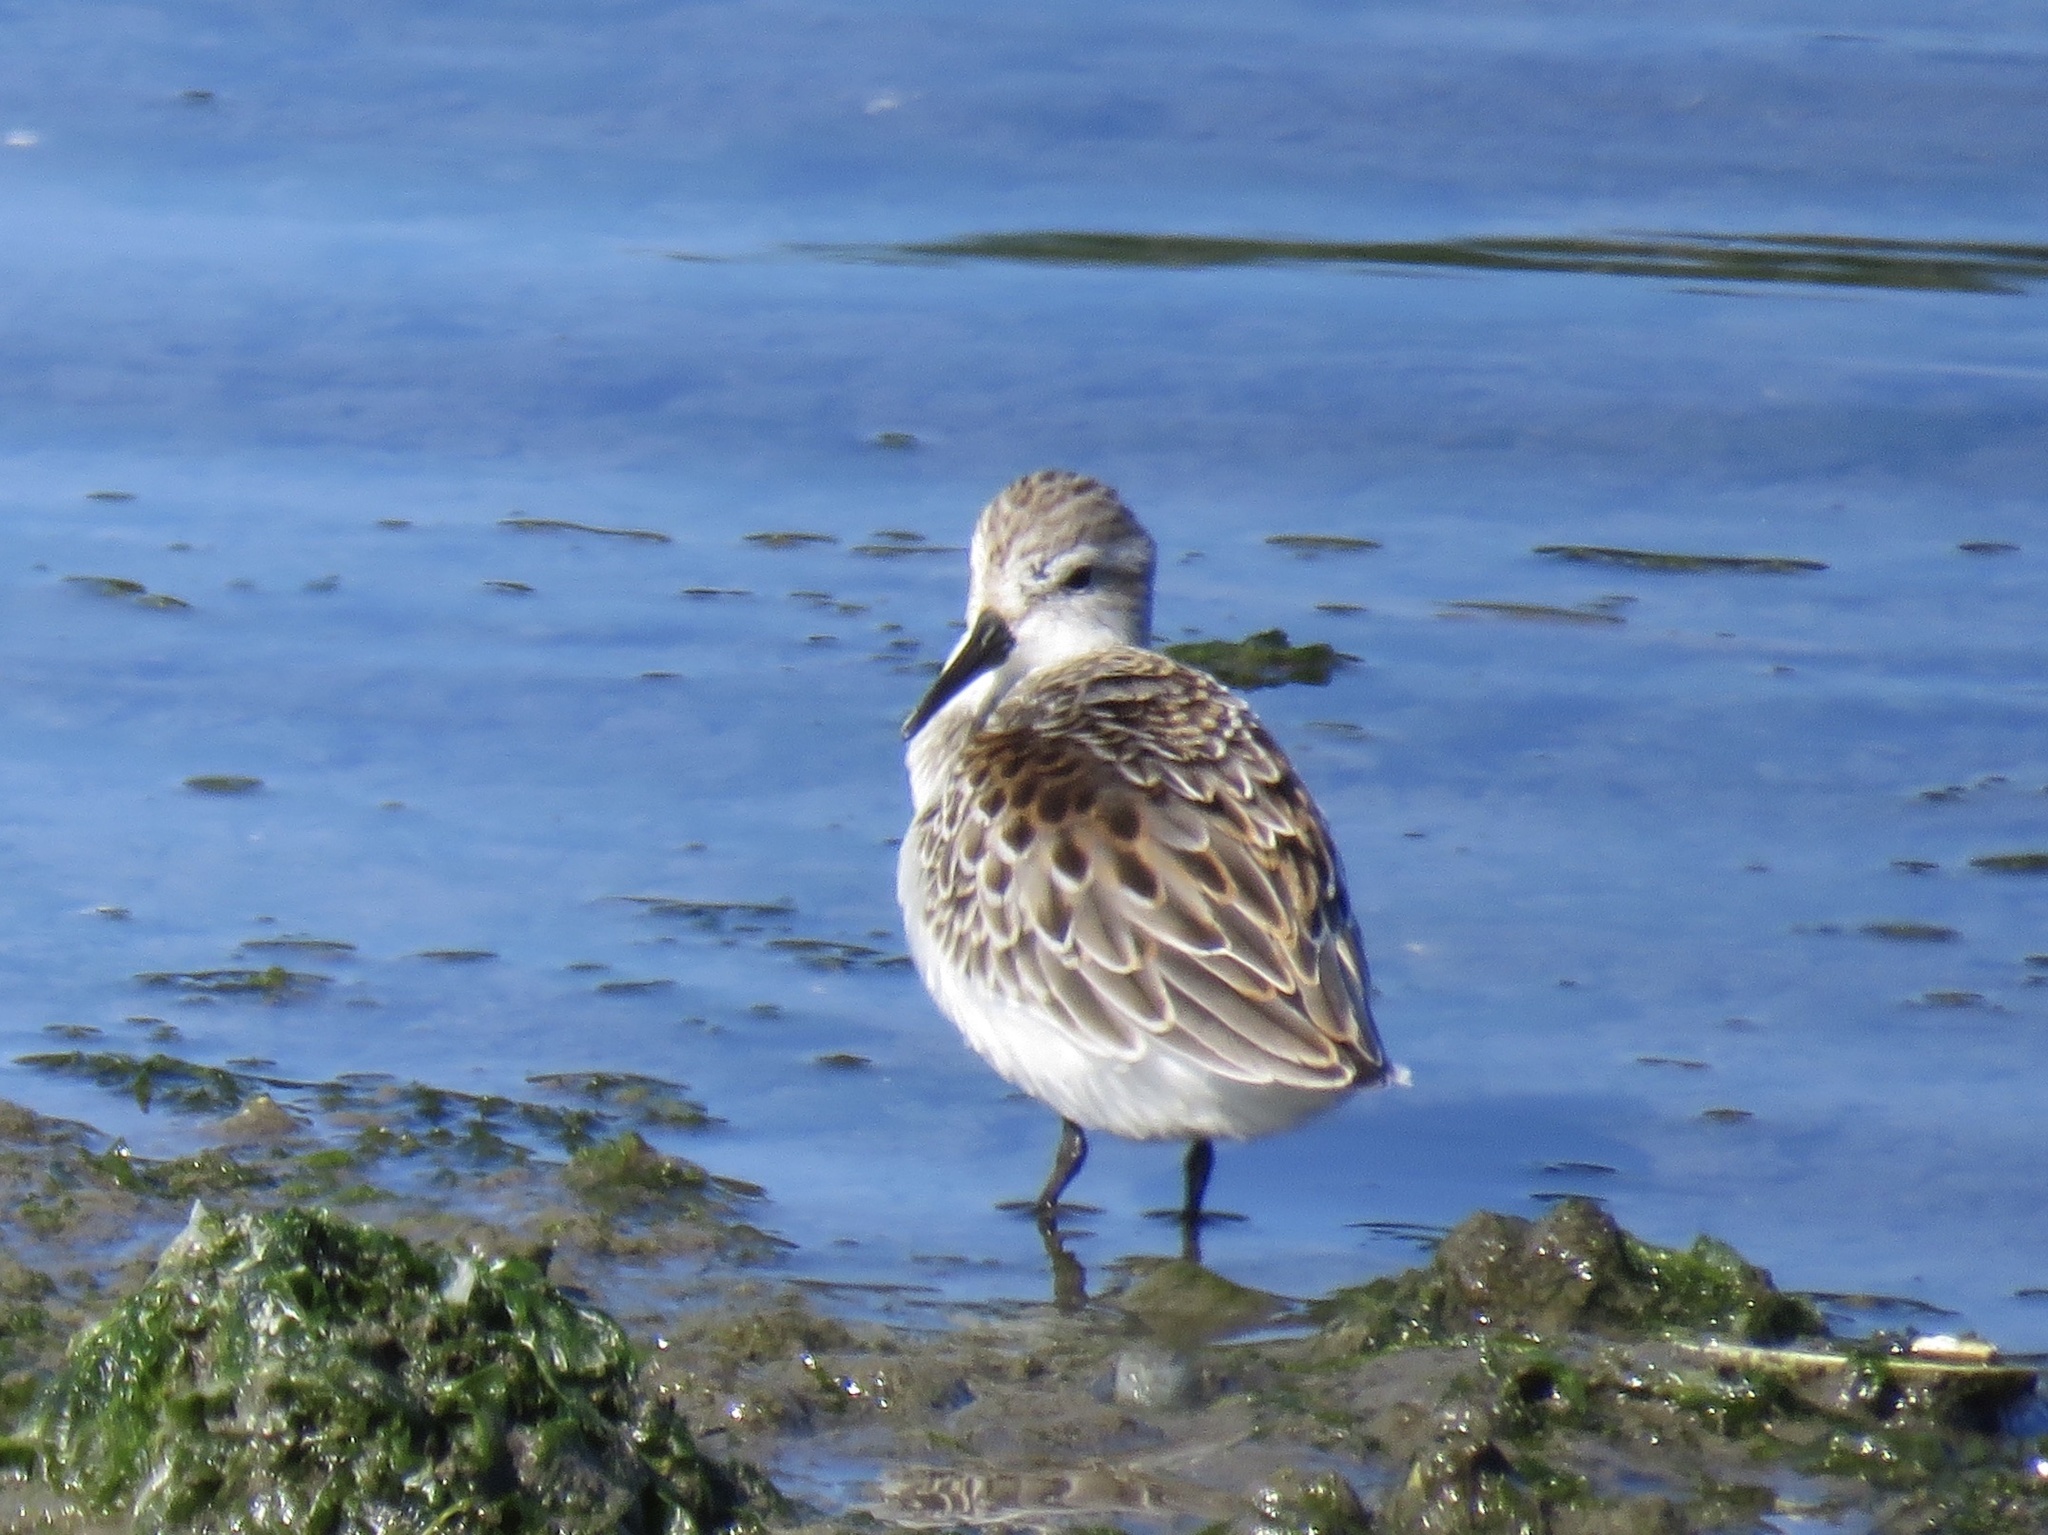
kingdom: Animalia
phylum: Chordata
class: Aves
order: Charadriiformes
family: Scolopacidae
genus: Calidris
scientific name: Calidris mauri
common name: Western sandpiper
